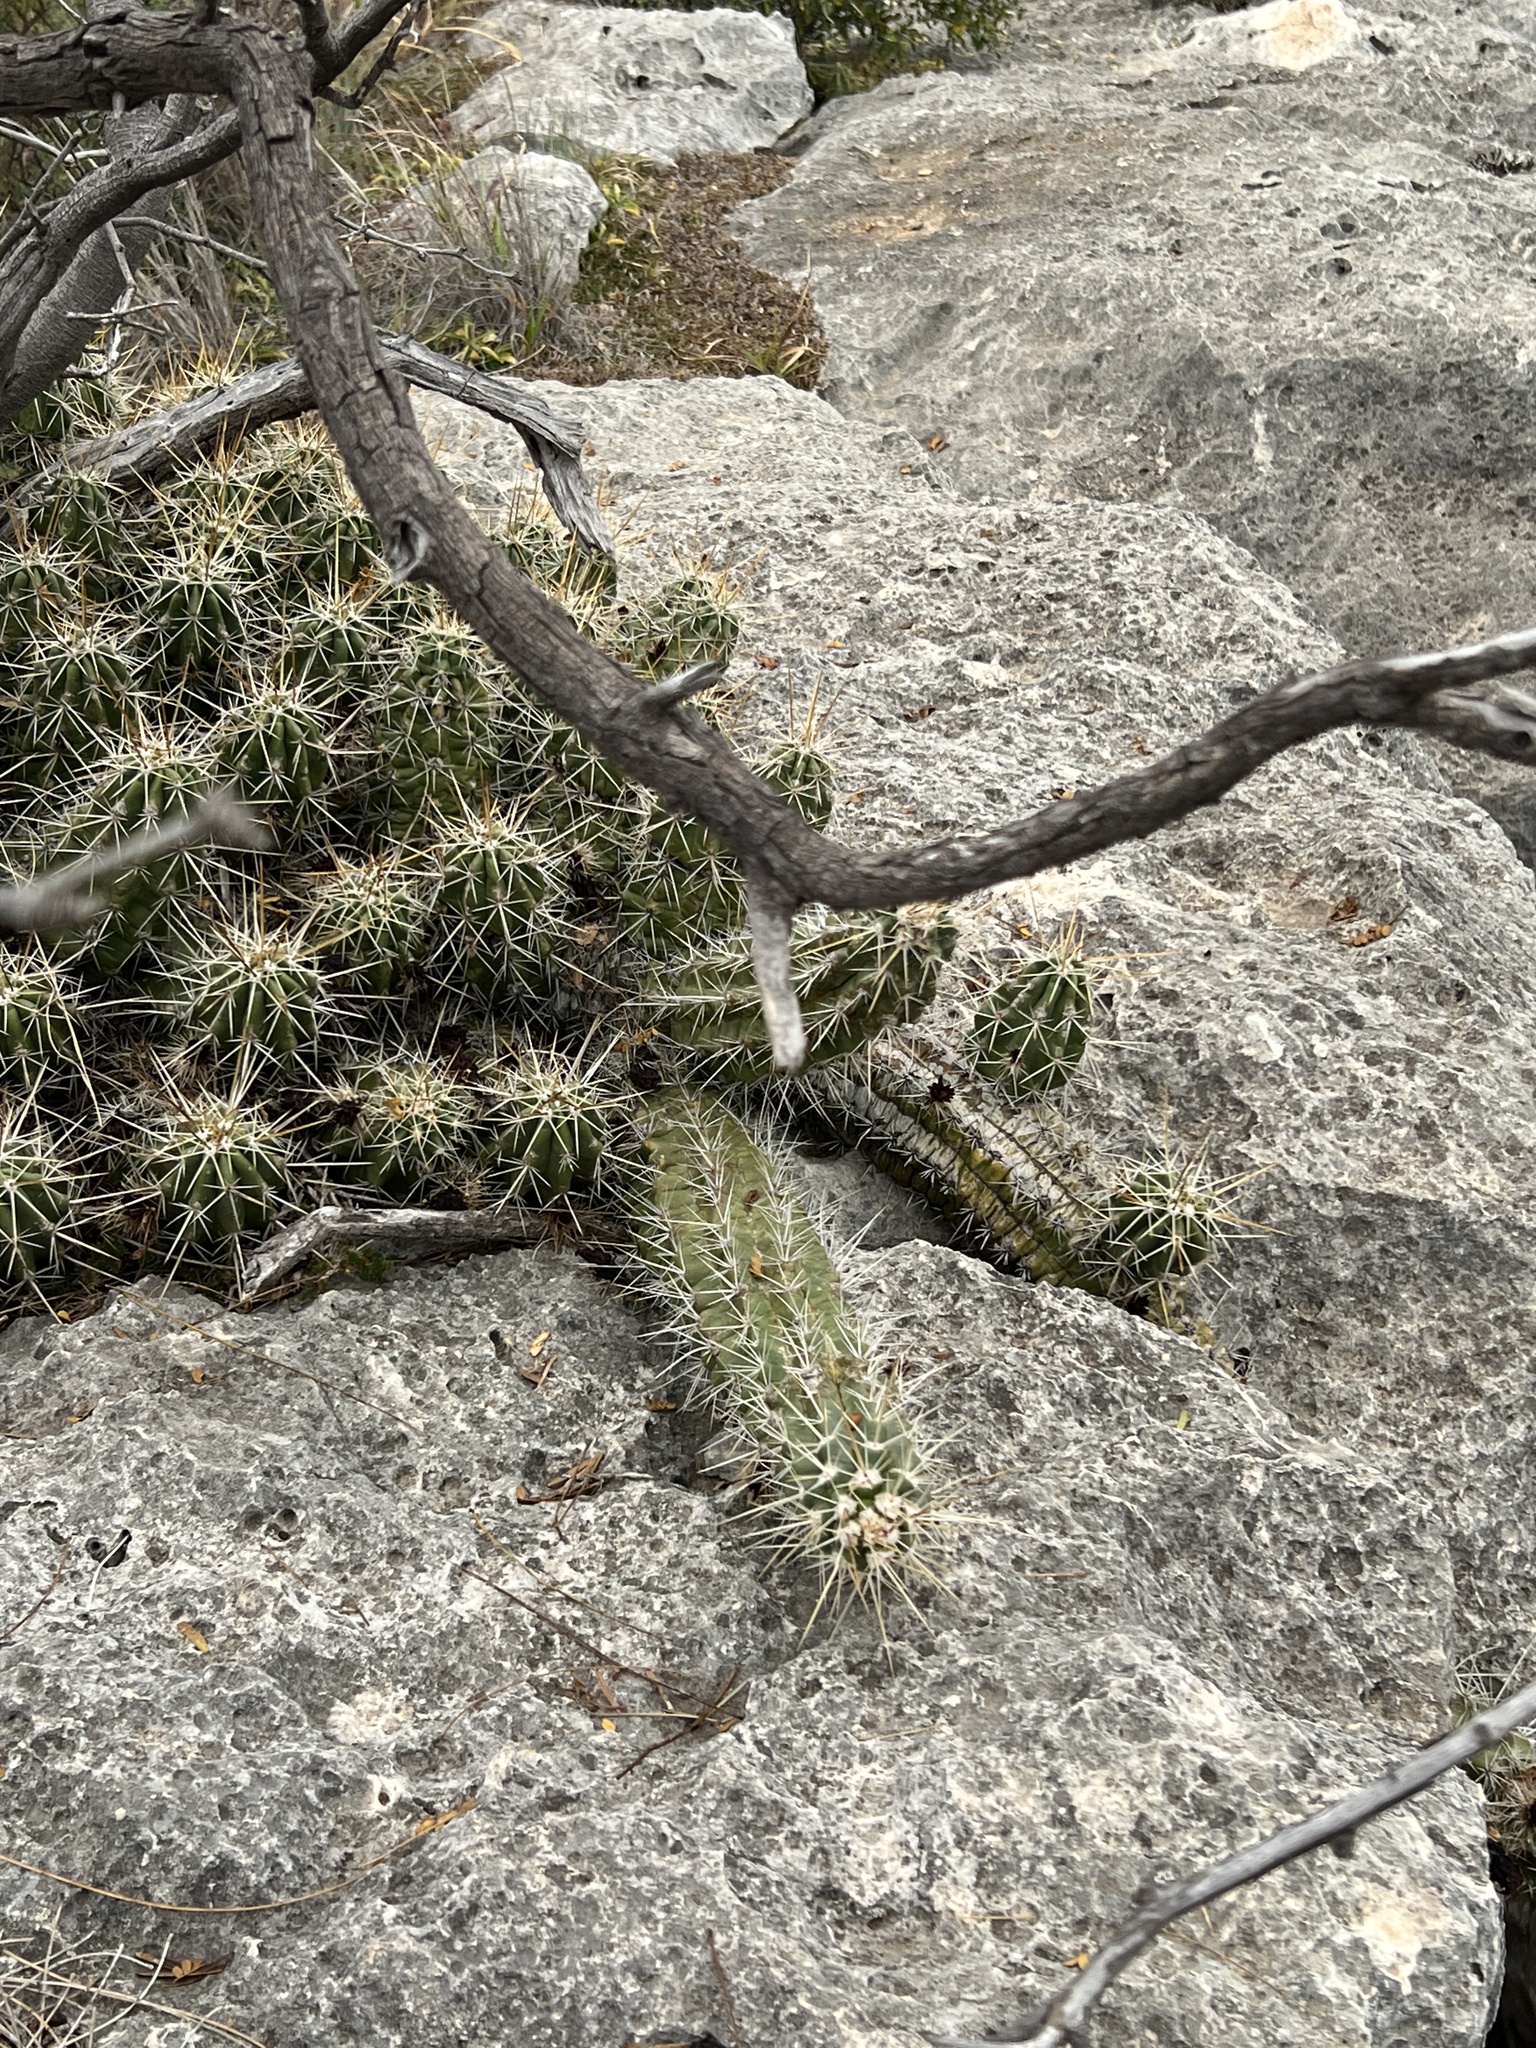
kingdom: Plantae
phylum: Tracheophyta
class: Magnoliopsida
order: Caryophyllales
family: Cactaceae
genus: Echinocereus
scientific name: Echinocereus enneacanthus
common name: Pitaya
